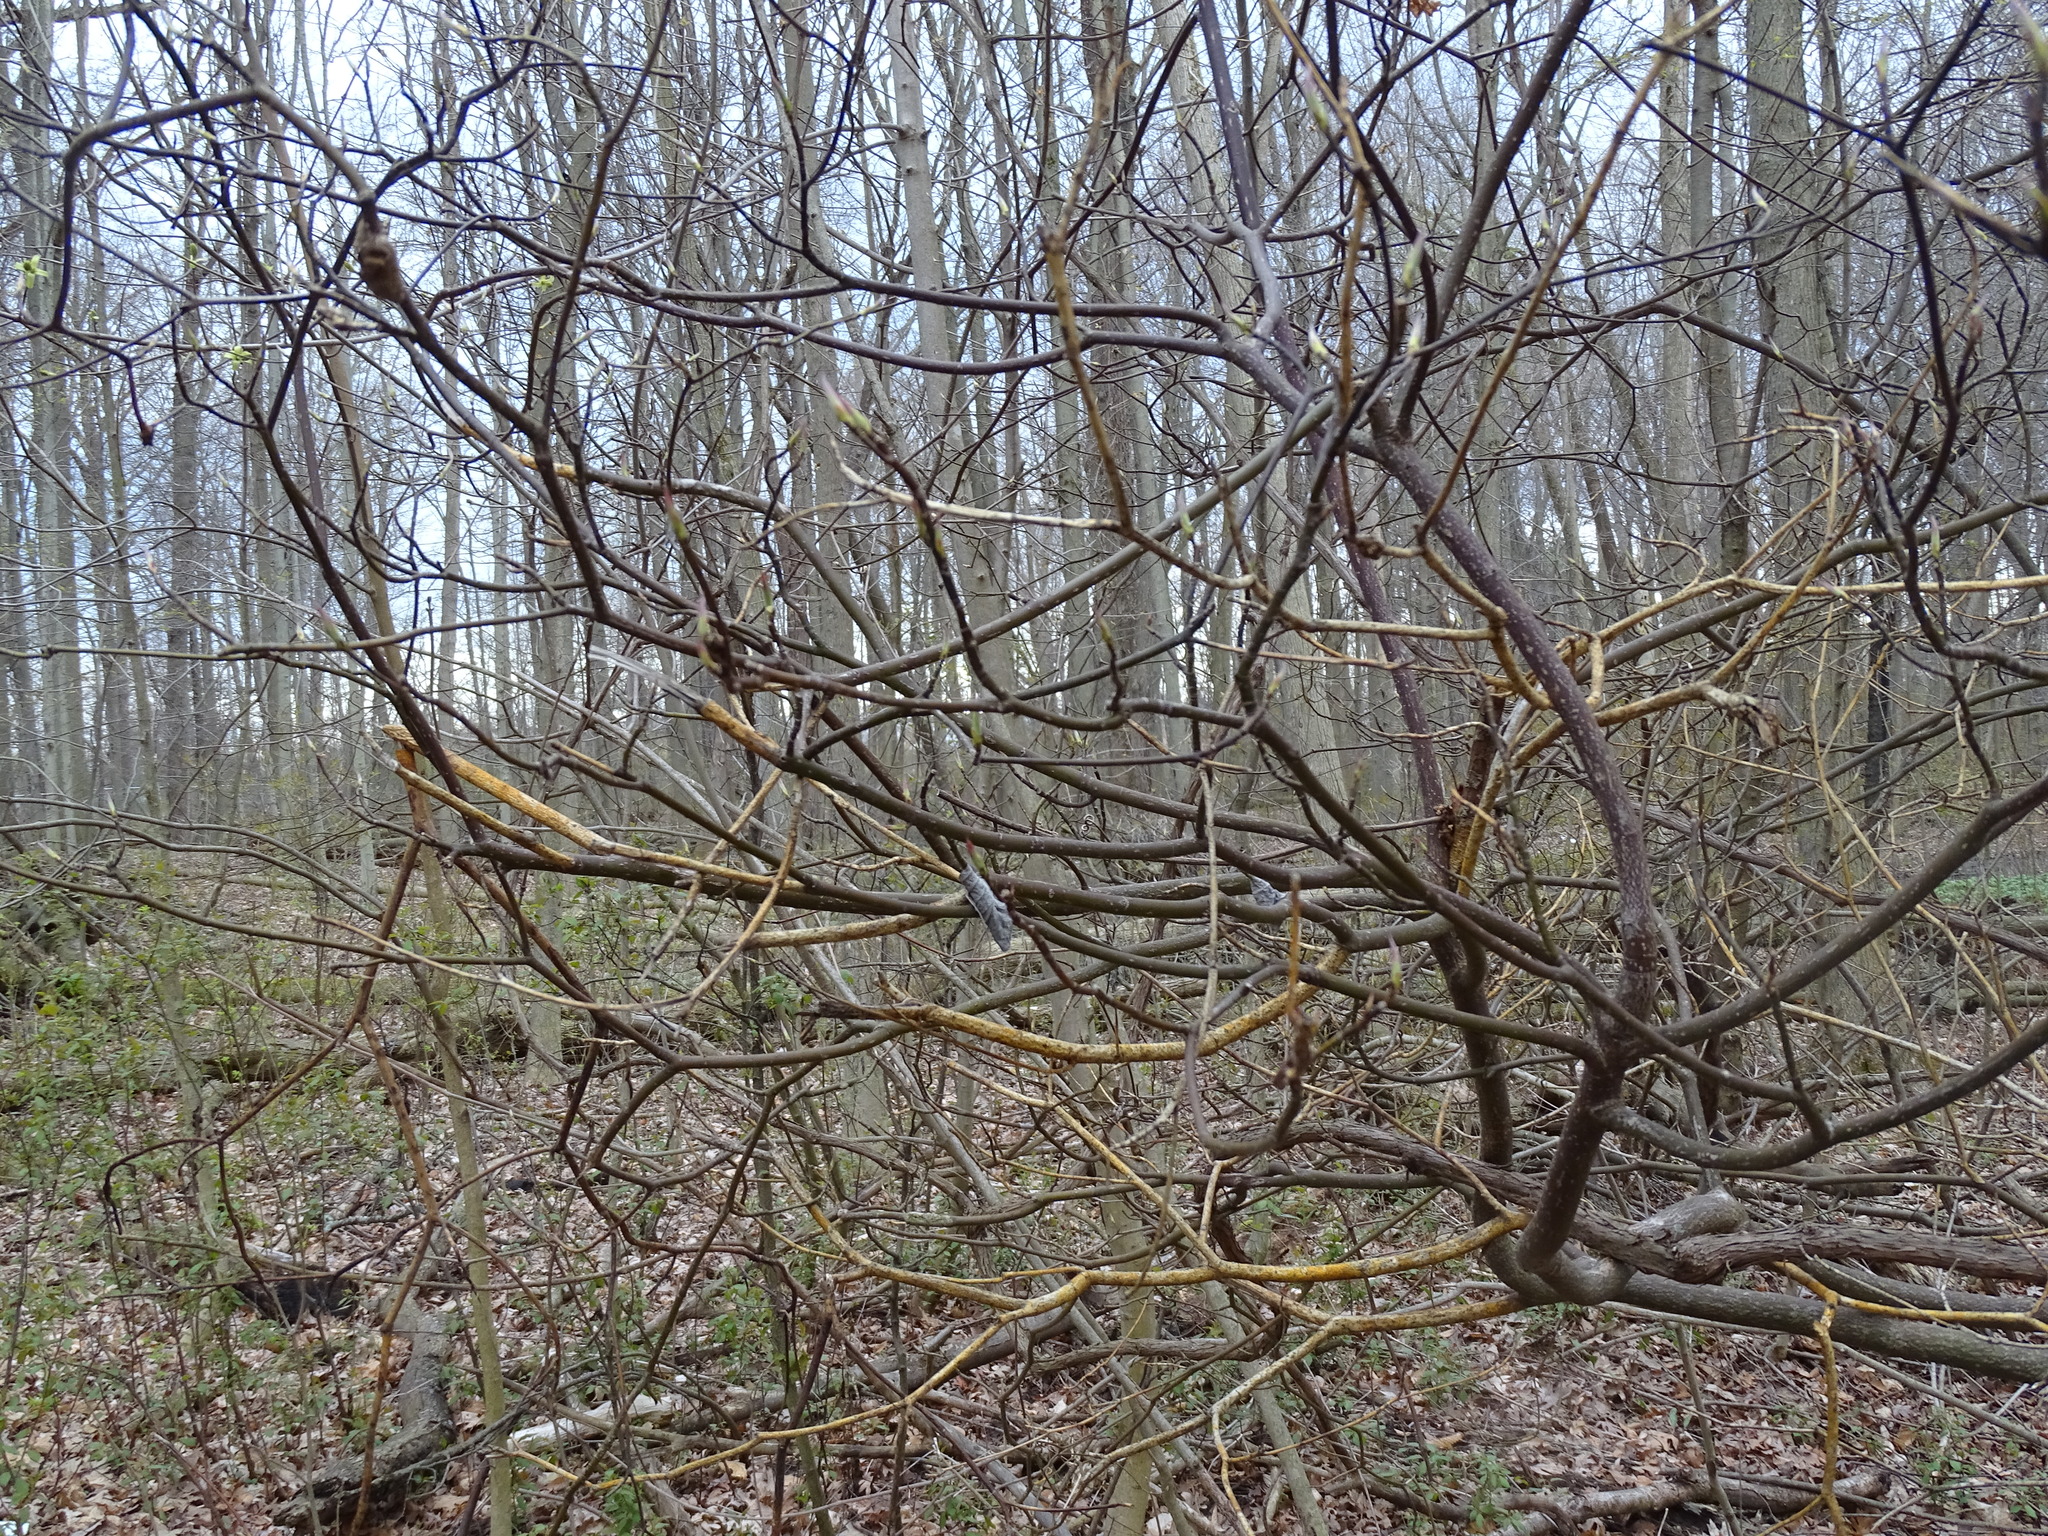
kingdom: Plantae
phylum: Tracheophyta
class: Magnoliopsida
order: Cornales
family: Cornaceae
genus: Cornus
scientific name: Cornus alternifolia
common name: Pagoda dogwood
